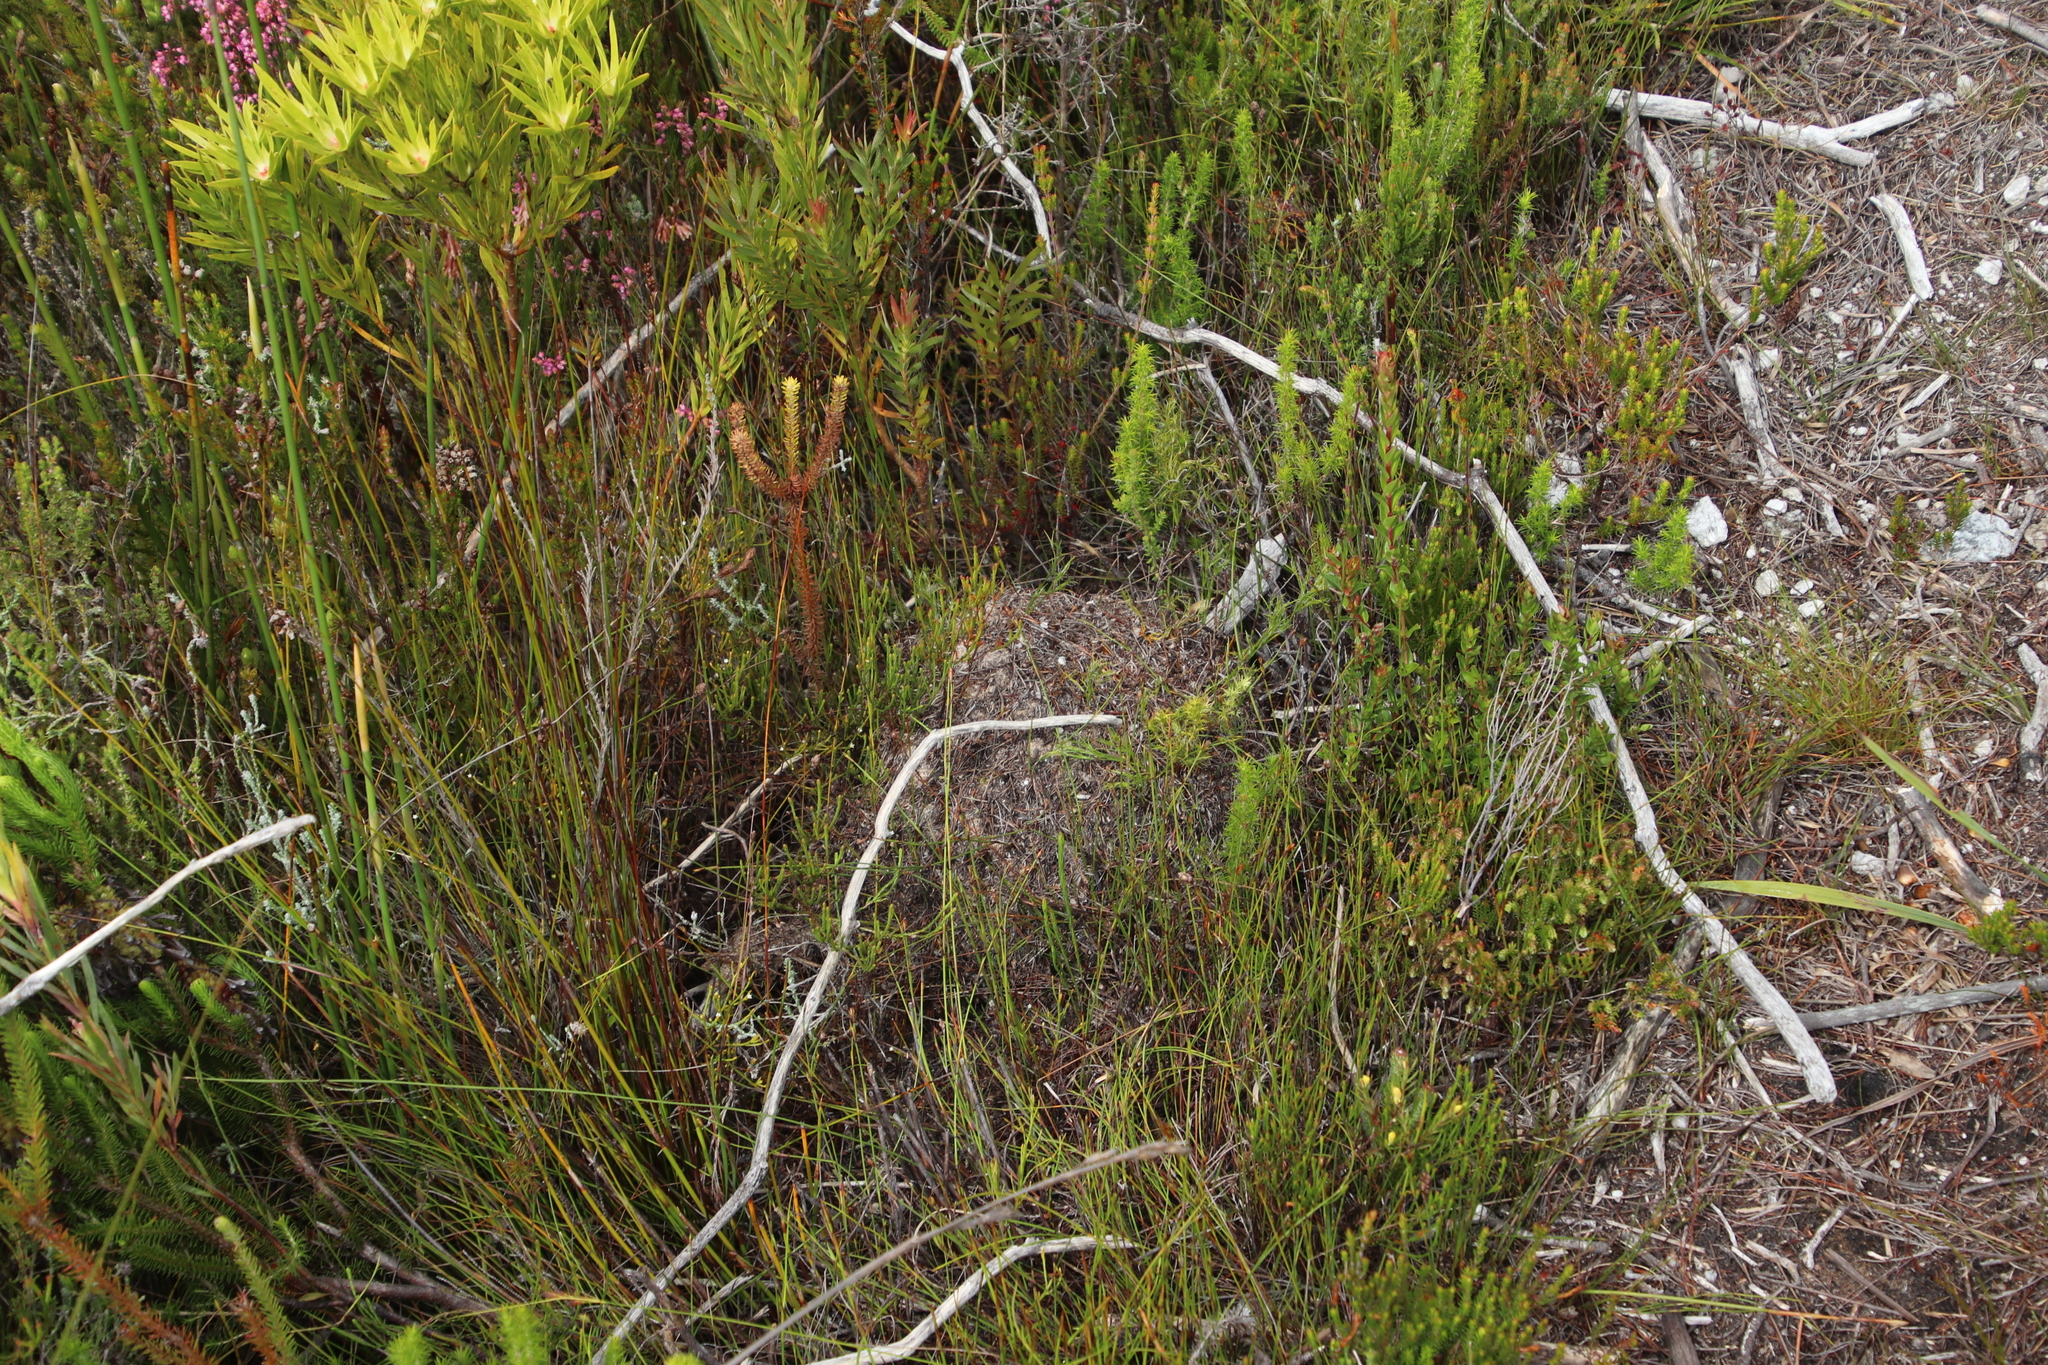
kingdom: Animalia
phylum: Arthropoda
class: Insecta
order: Hymenoptera
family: Formicidae
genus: Myrmicaria
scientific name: Myrmicaria nigra
